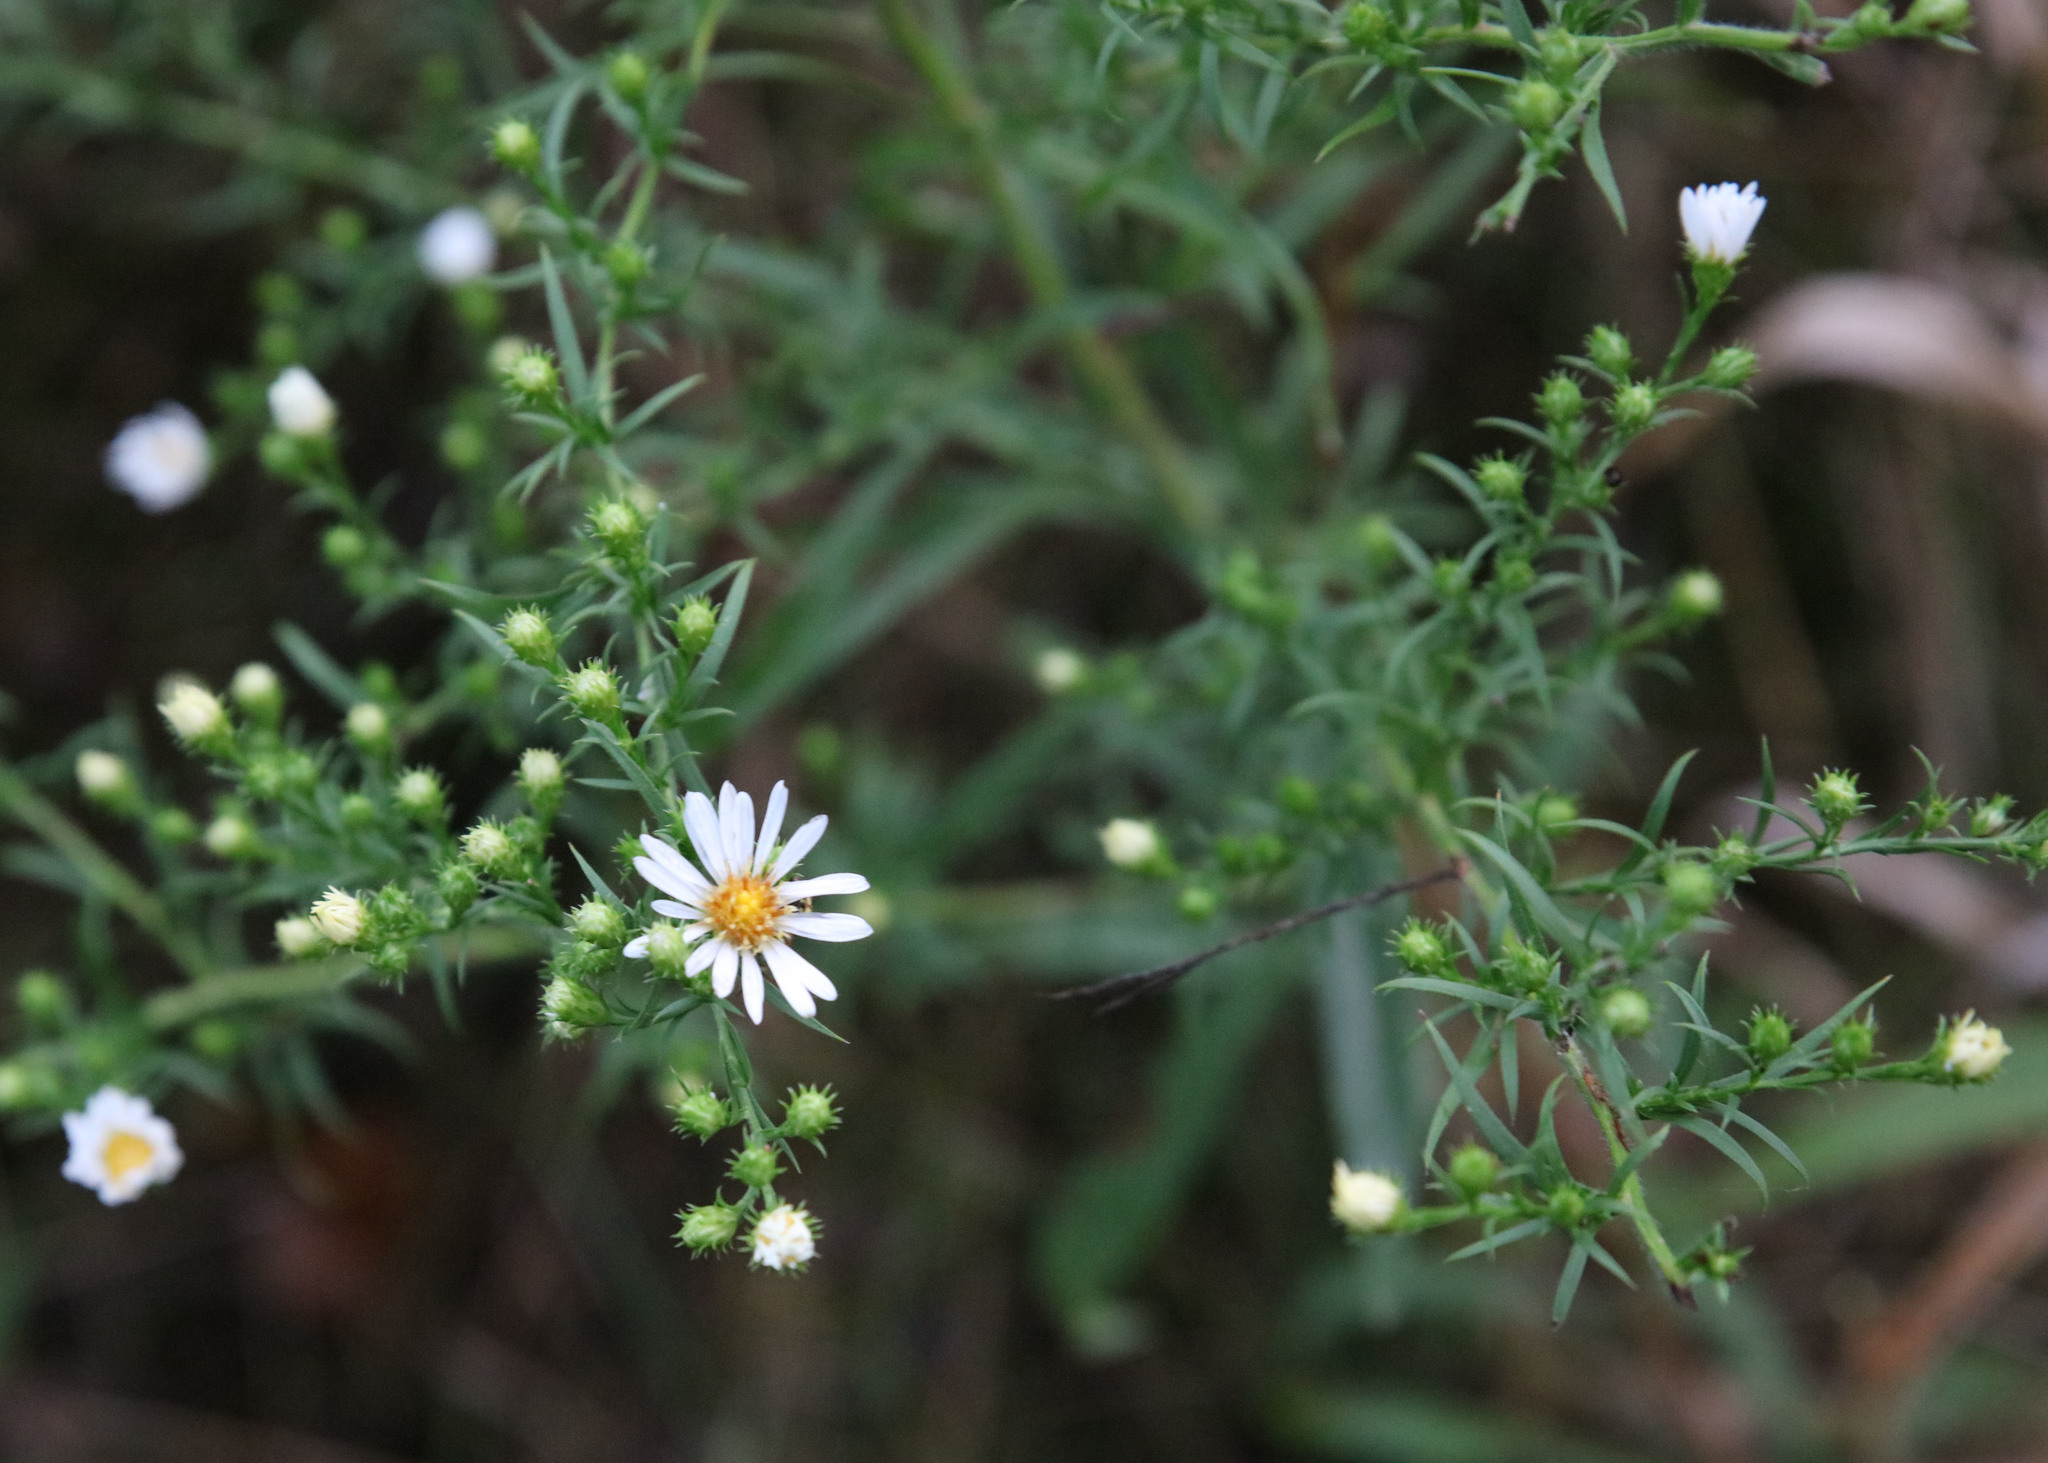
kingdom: Plantae
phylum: Tracheophyta
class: Magnoliopsida
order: Asterales
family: Asteraceae
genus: Symphyotrichum
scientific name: Symphyotrichum pilosum
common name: Awl aster
